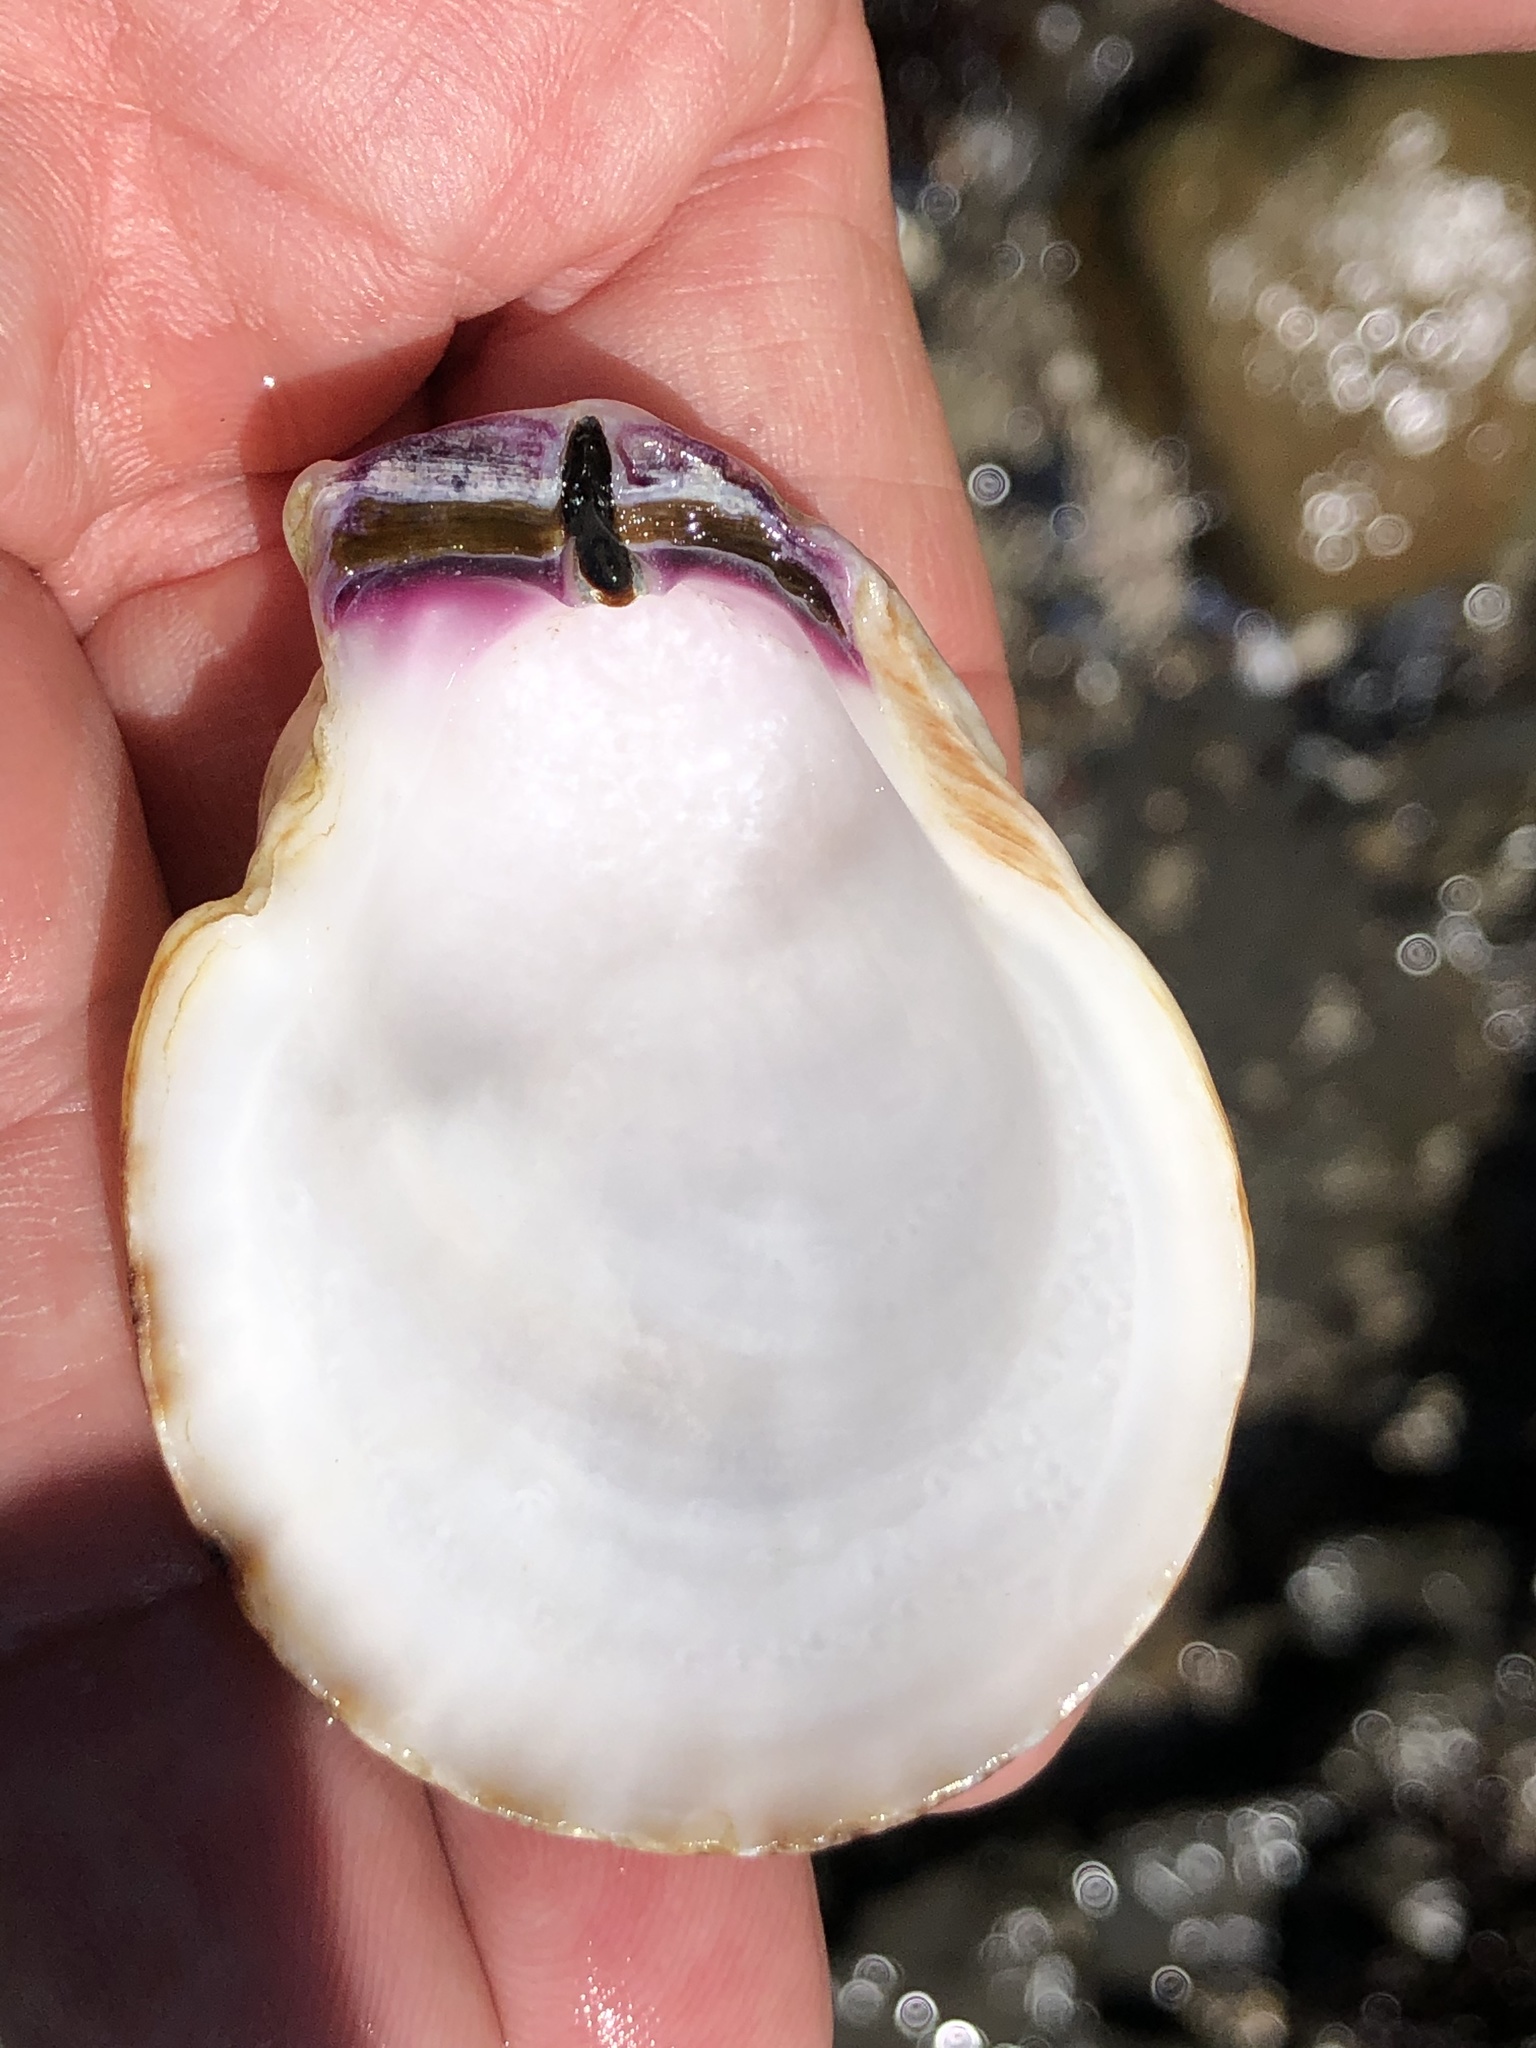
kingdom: Animalia
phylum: Mollusca
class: Bivalvia
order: Pectinida
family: Pectinidae
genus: Crassadoma
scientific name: Crassadoma gigantea
